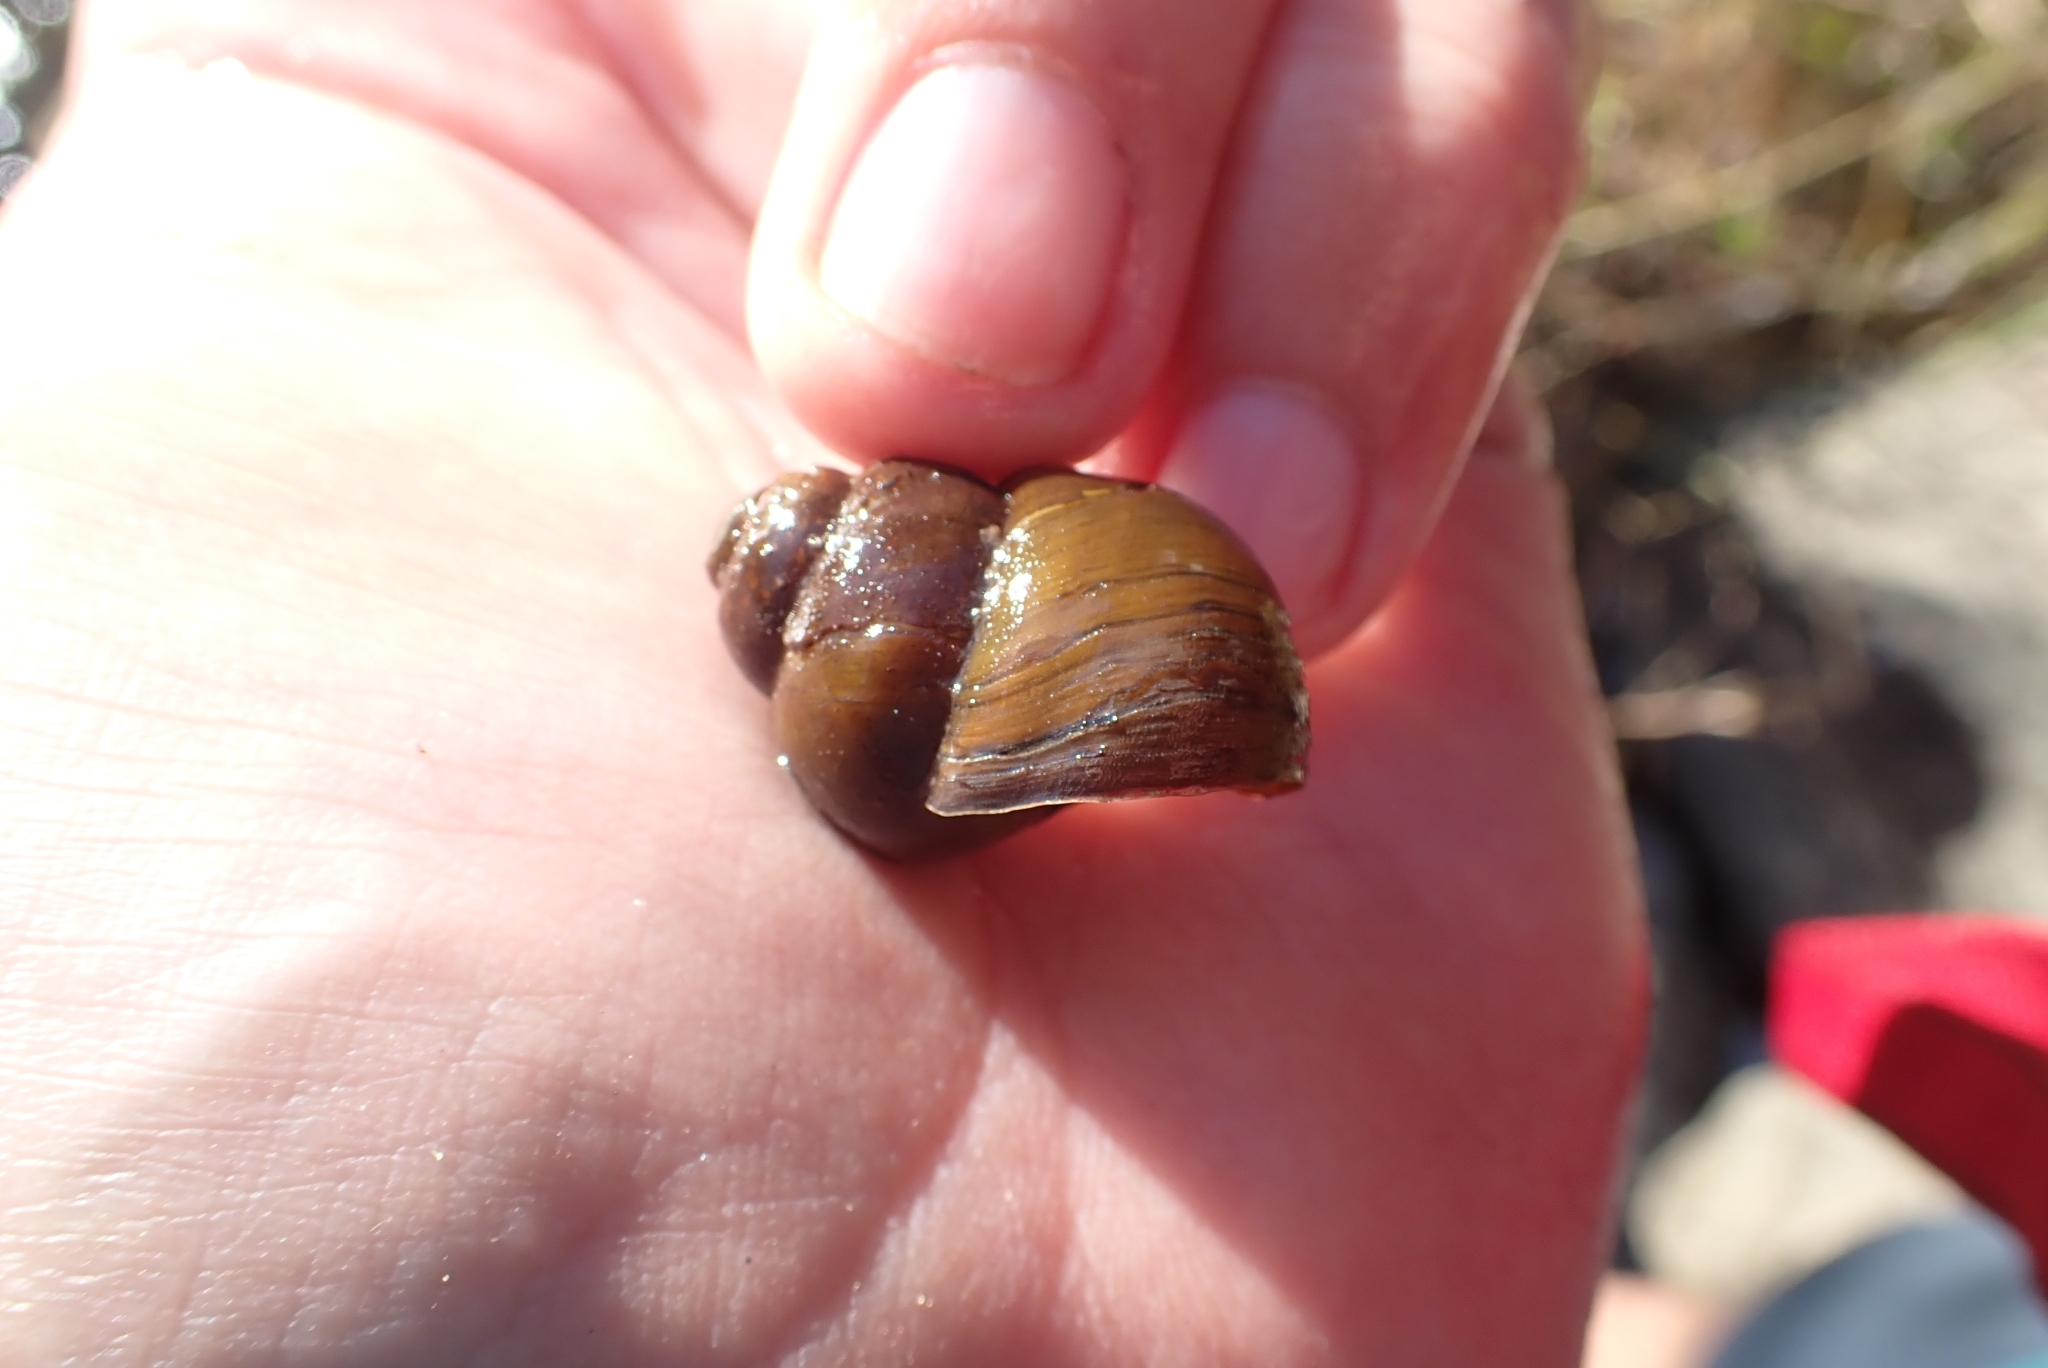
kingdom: Animalia
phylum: Mollusca
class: Gastropoda
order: Architaenioglossa
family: Viviparidae
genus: Bellamya
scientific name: Bellamya capillata
